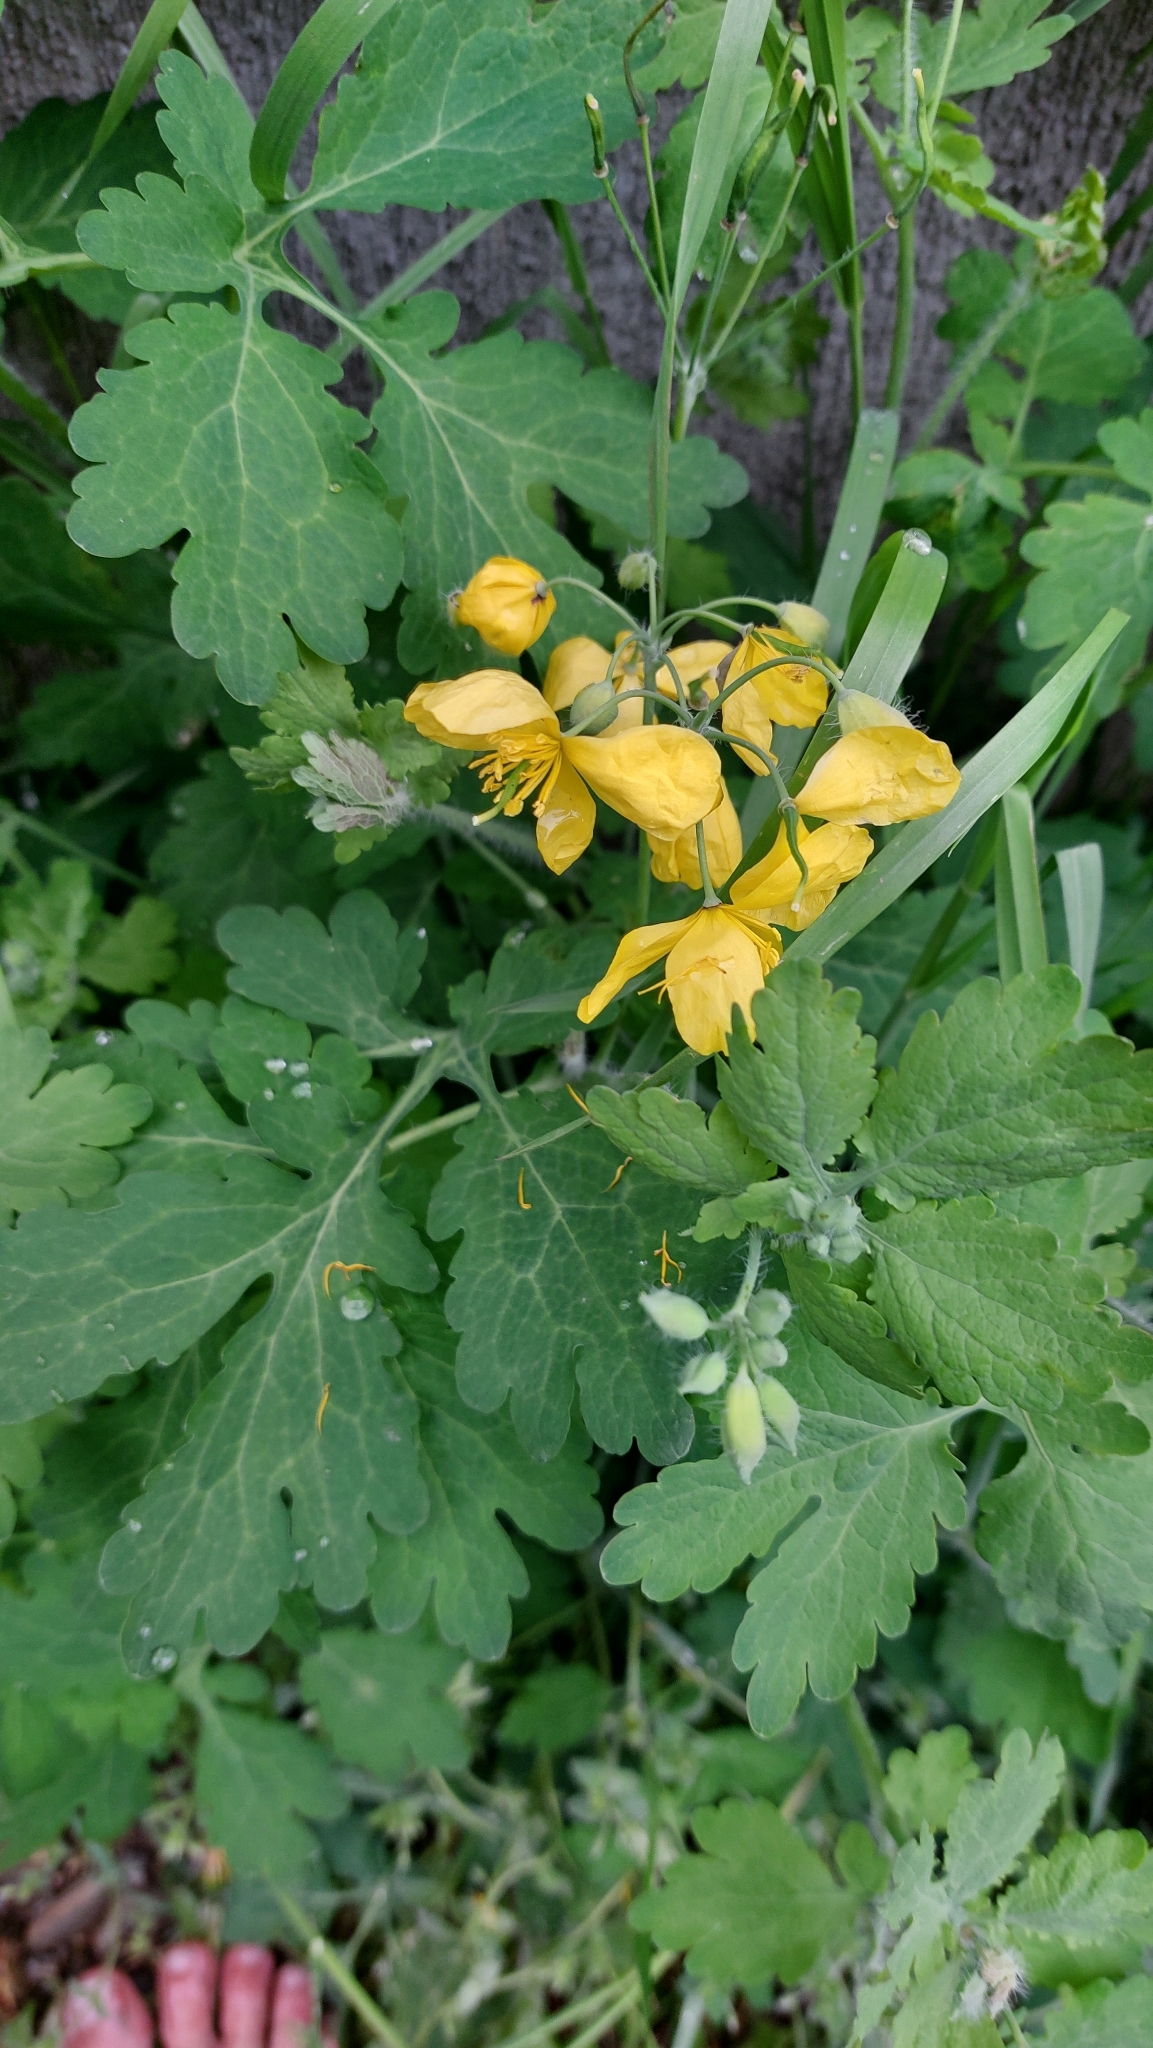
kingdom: Plantae
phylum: Tracheophyta
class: Magnoliopsida
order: Ranunculales
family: Papaveraceae
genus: Chelidonium
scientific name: Chelidonium majus
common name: Greater celandine
